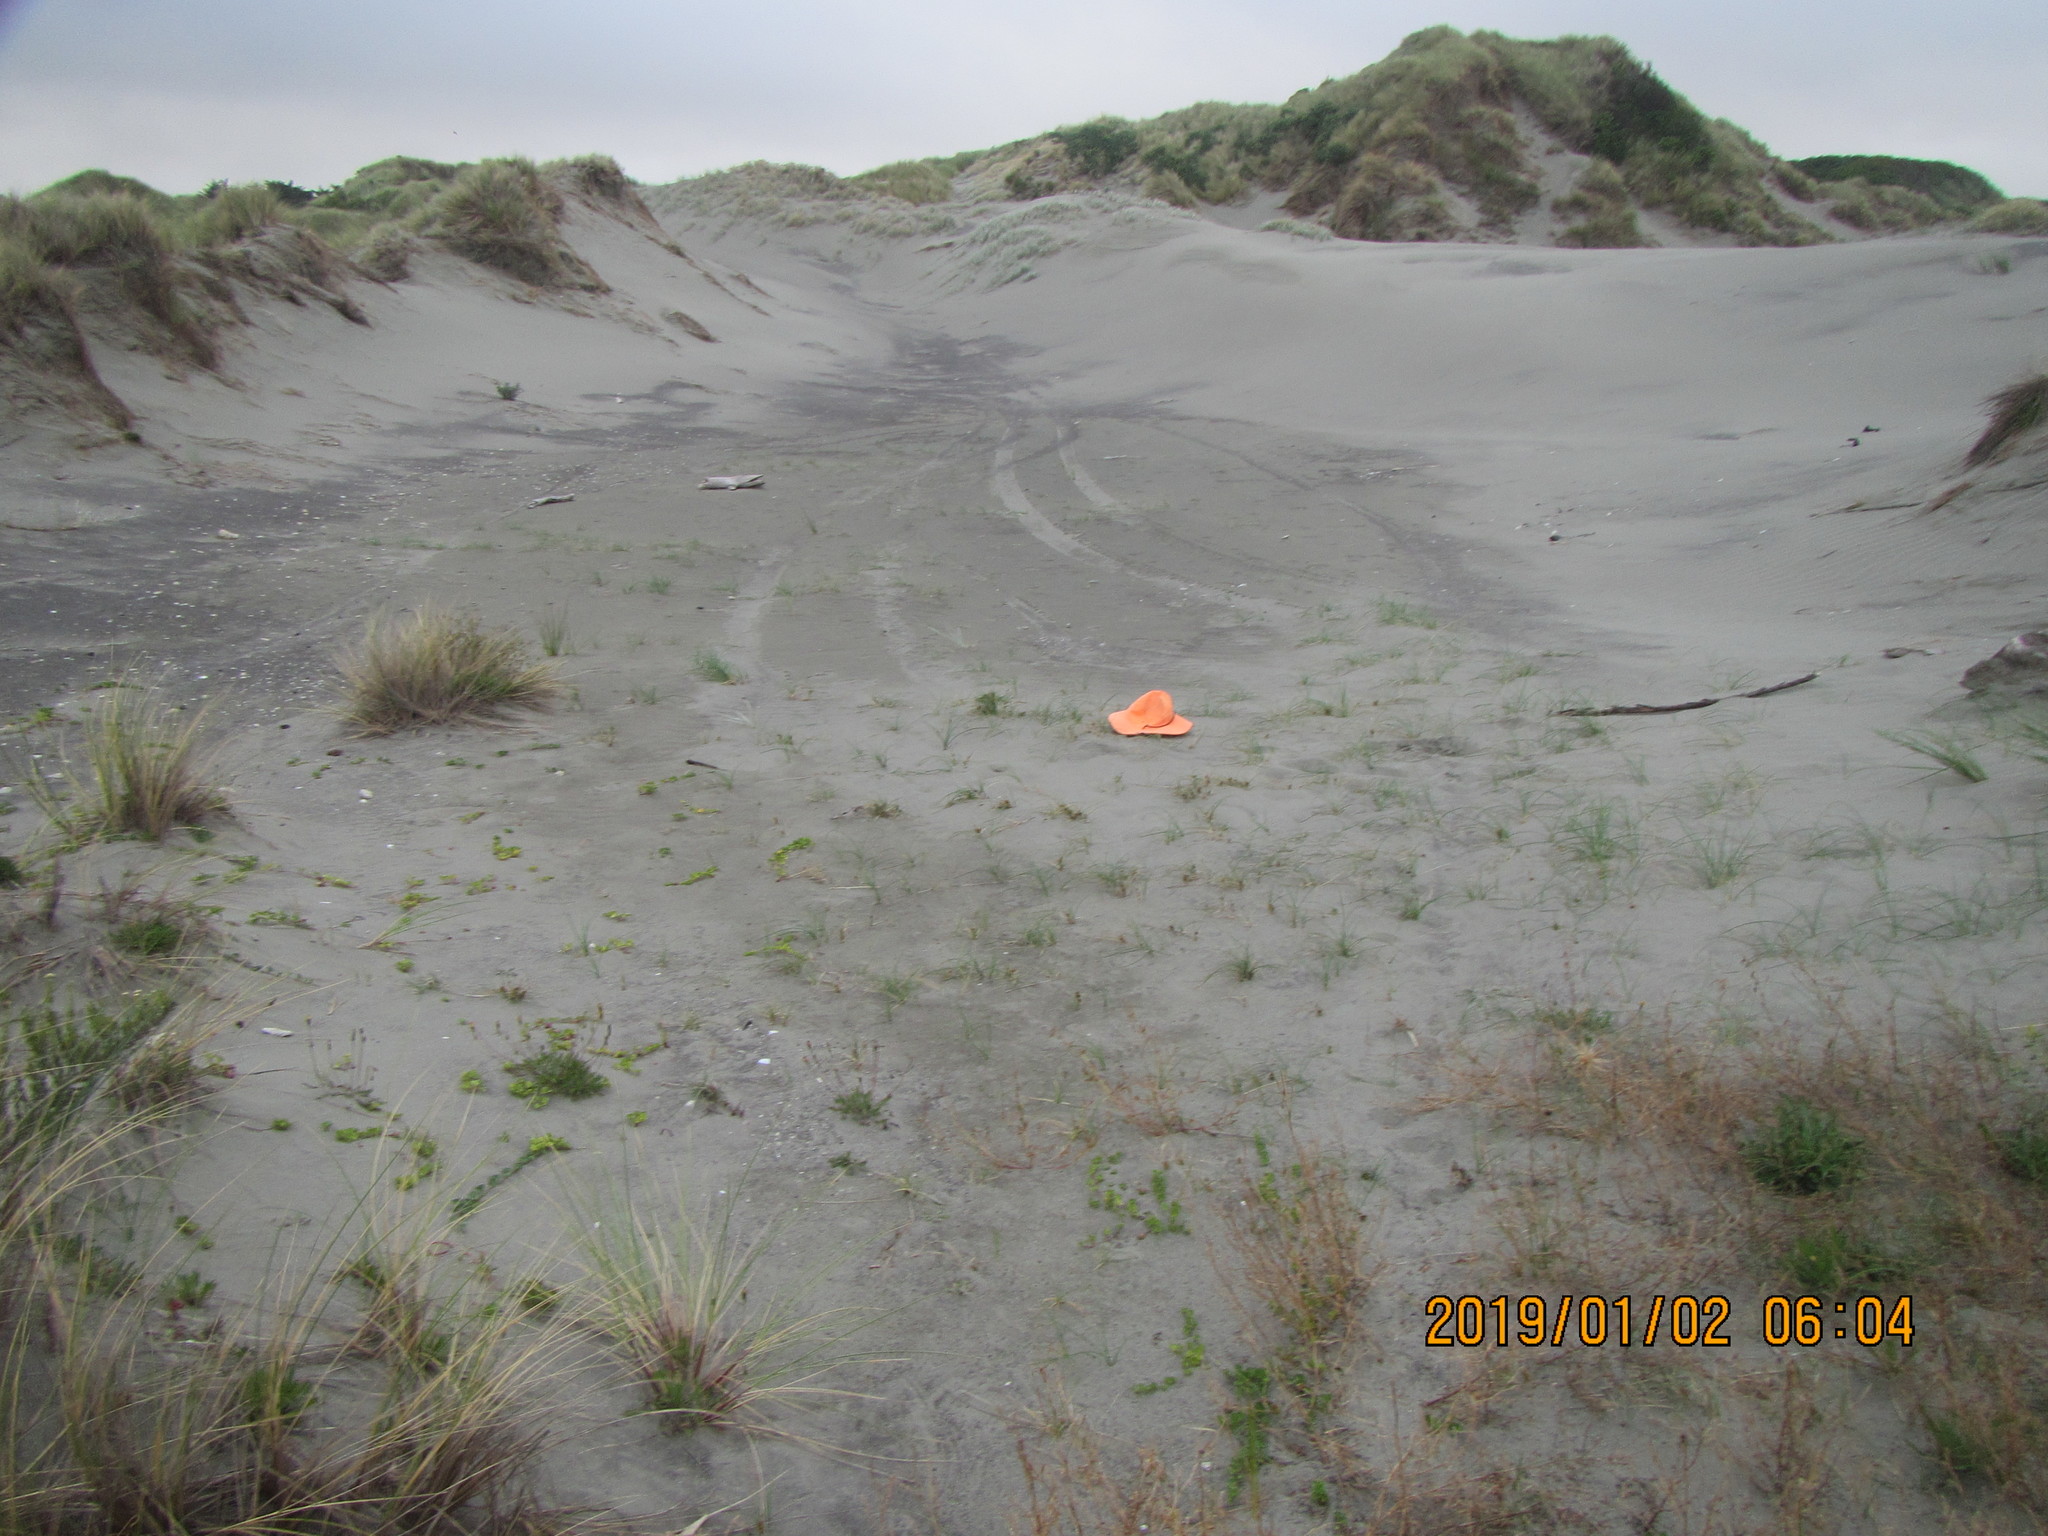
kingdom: Plantae
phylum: Tracheophyta
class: Liliopsida
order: Poales
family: Cyperaceae
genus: Carex
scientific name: Carex pumila
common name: Dwarf sedge
